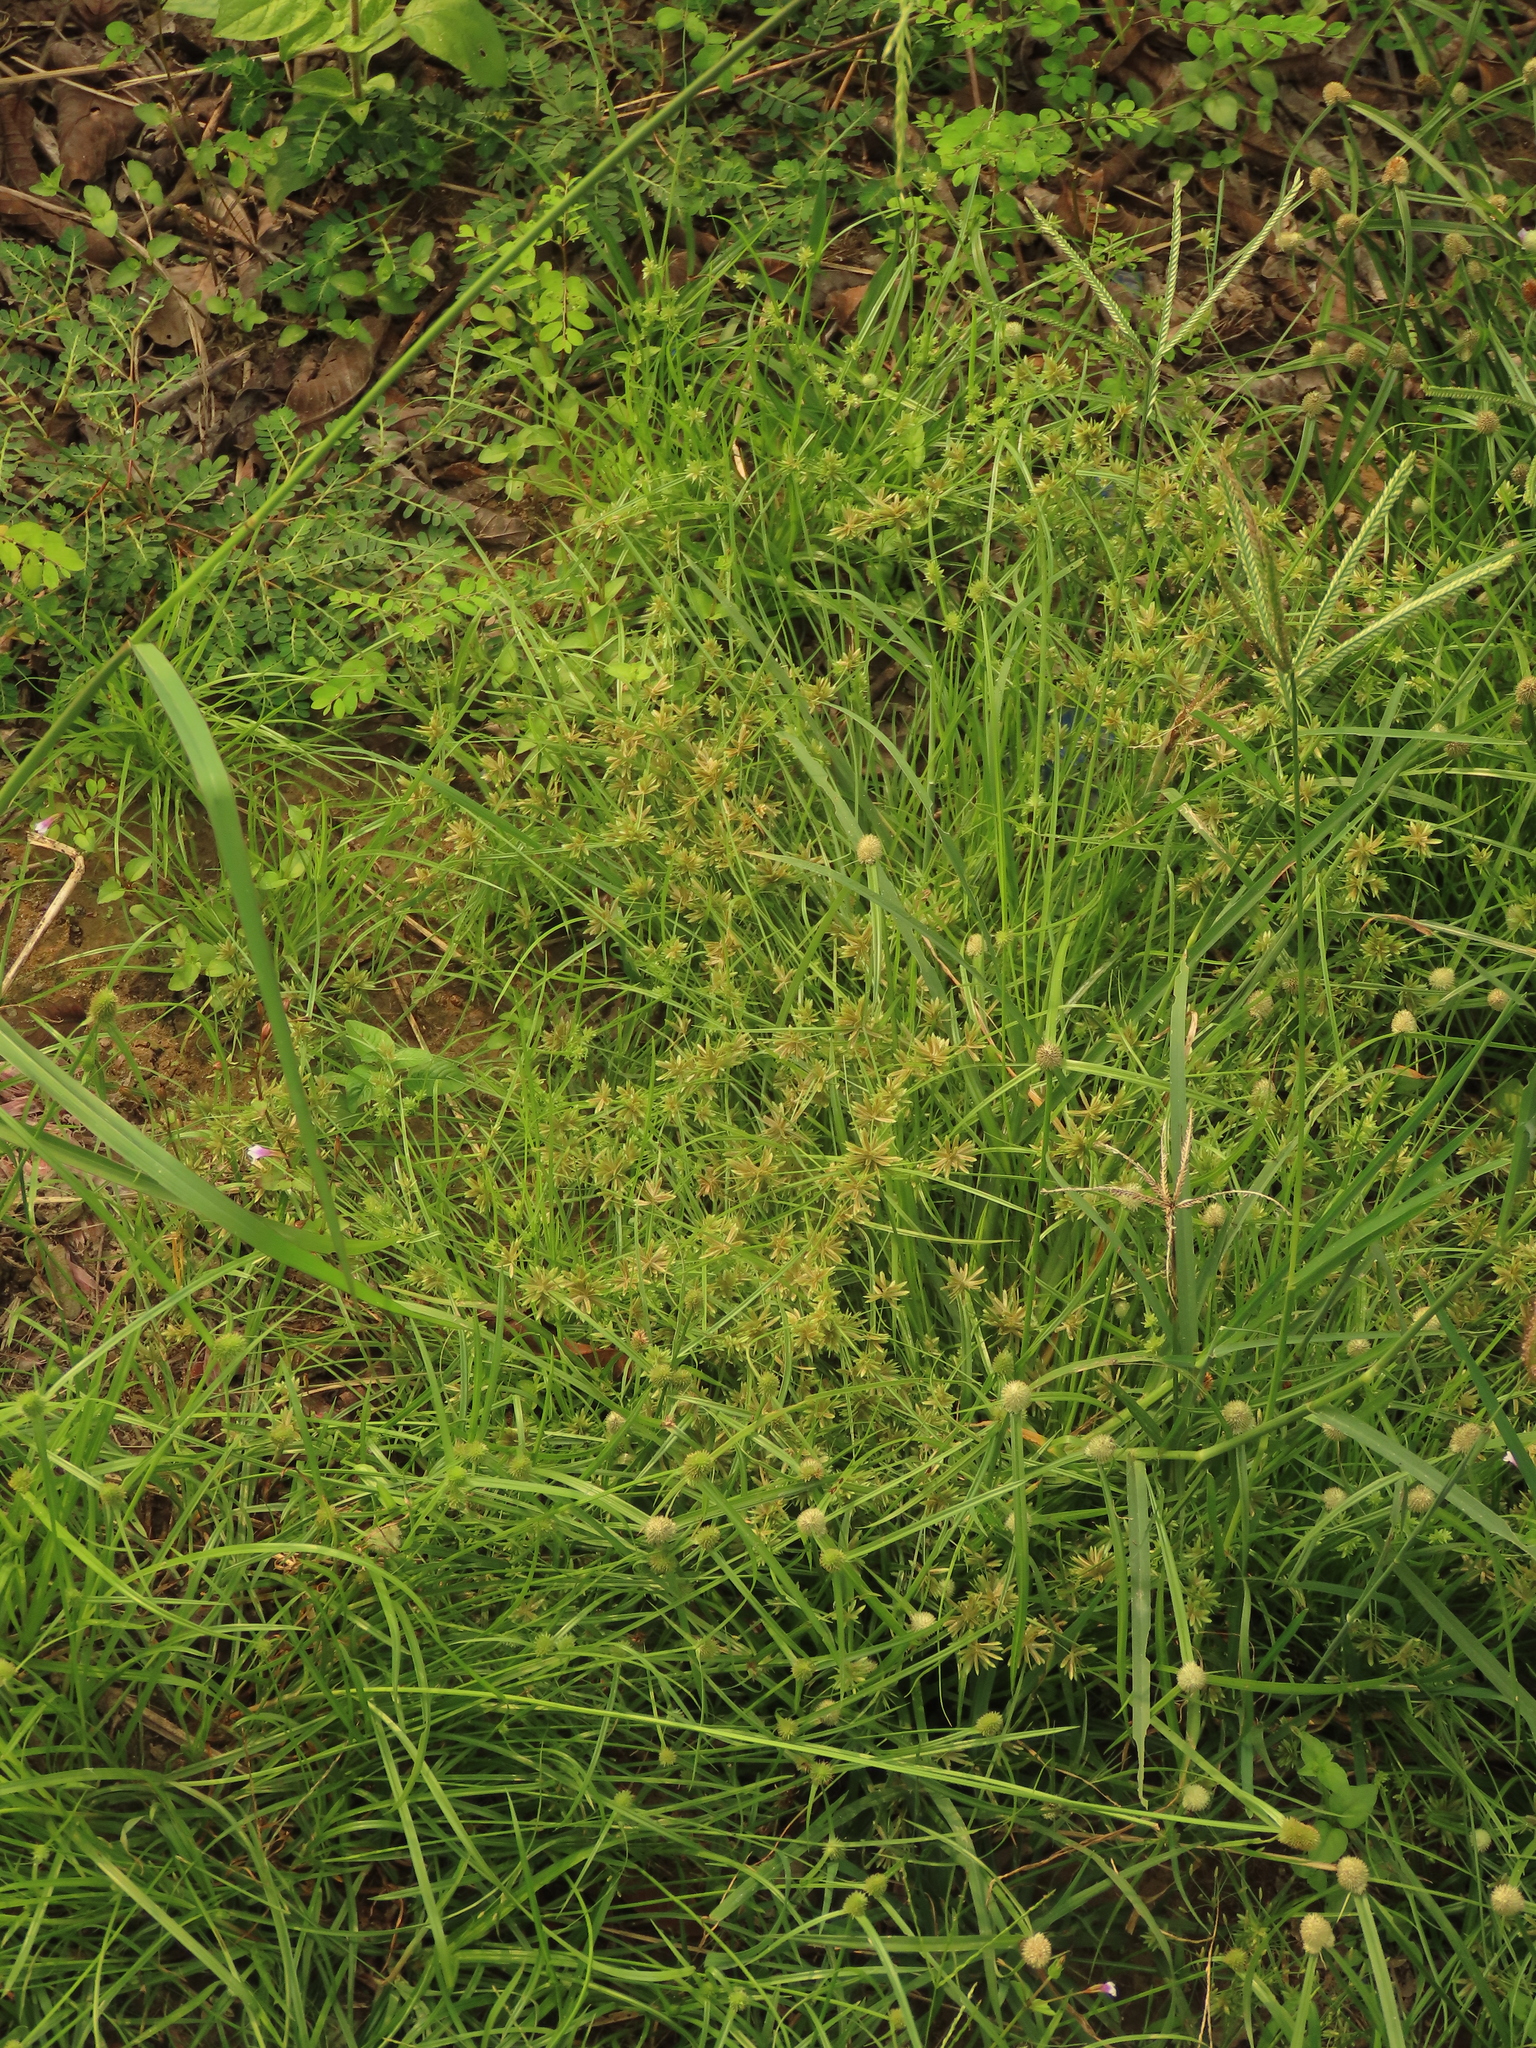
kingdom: Plantae
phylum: Tracheophyta
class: Liliopsida
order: Poales
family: Cyperaceae
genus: Cyperus
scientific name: Cyperus pumilus
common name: Low flatsedge
